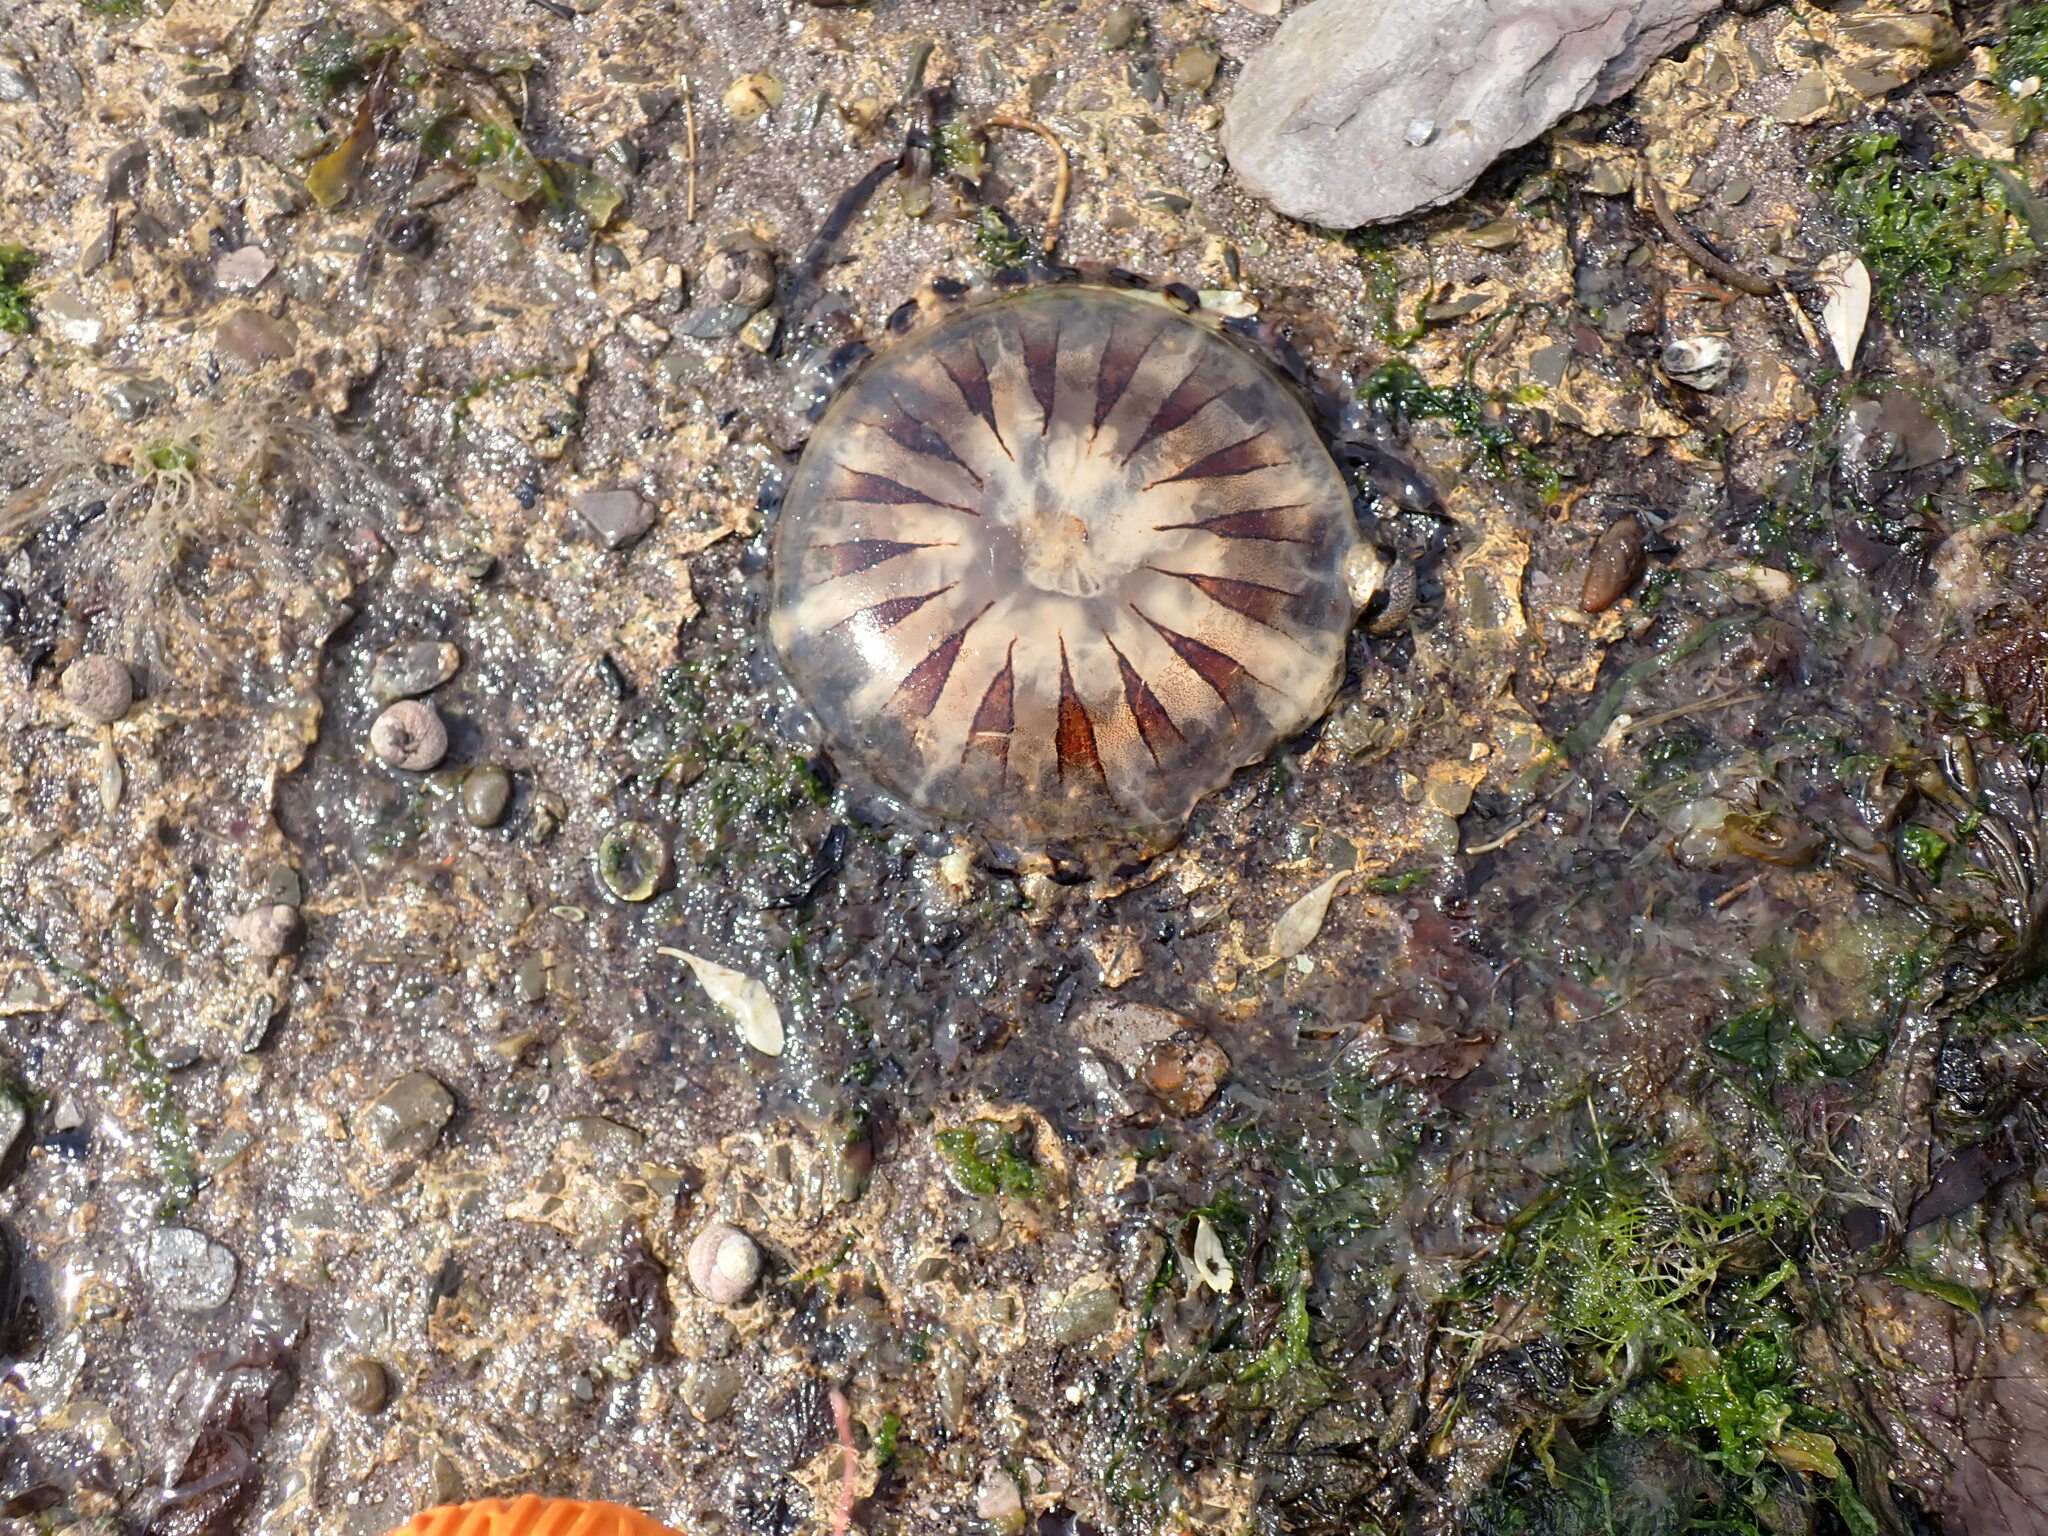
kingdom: Animalia
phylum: Cnidaria
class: Scyphozoa
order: Semaeostomeae
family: Pelagiidae
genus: Chrysaora
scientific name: Chrysaora hysoscella
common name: Compass jellyfish
